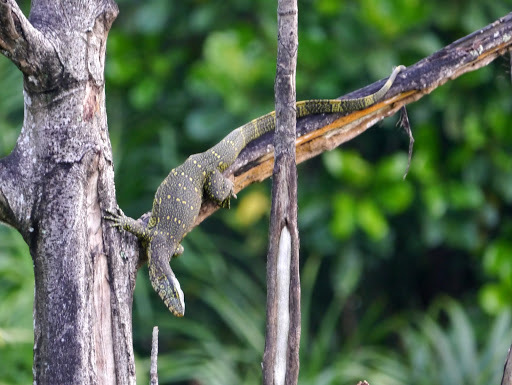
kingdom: Animalia
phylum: Chordata
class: Squamata
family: Varanidae
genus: Varanus
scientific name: Varanus niloticus
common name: Nile monitor
